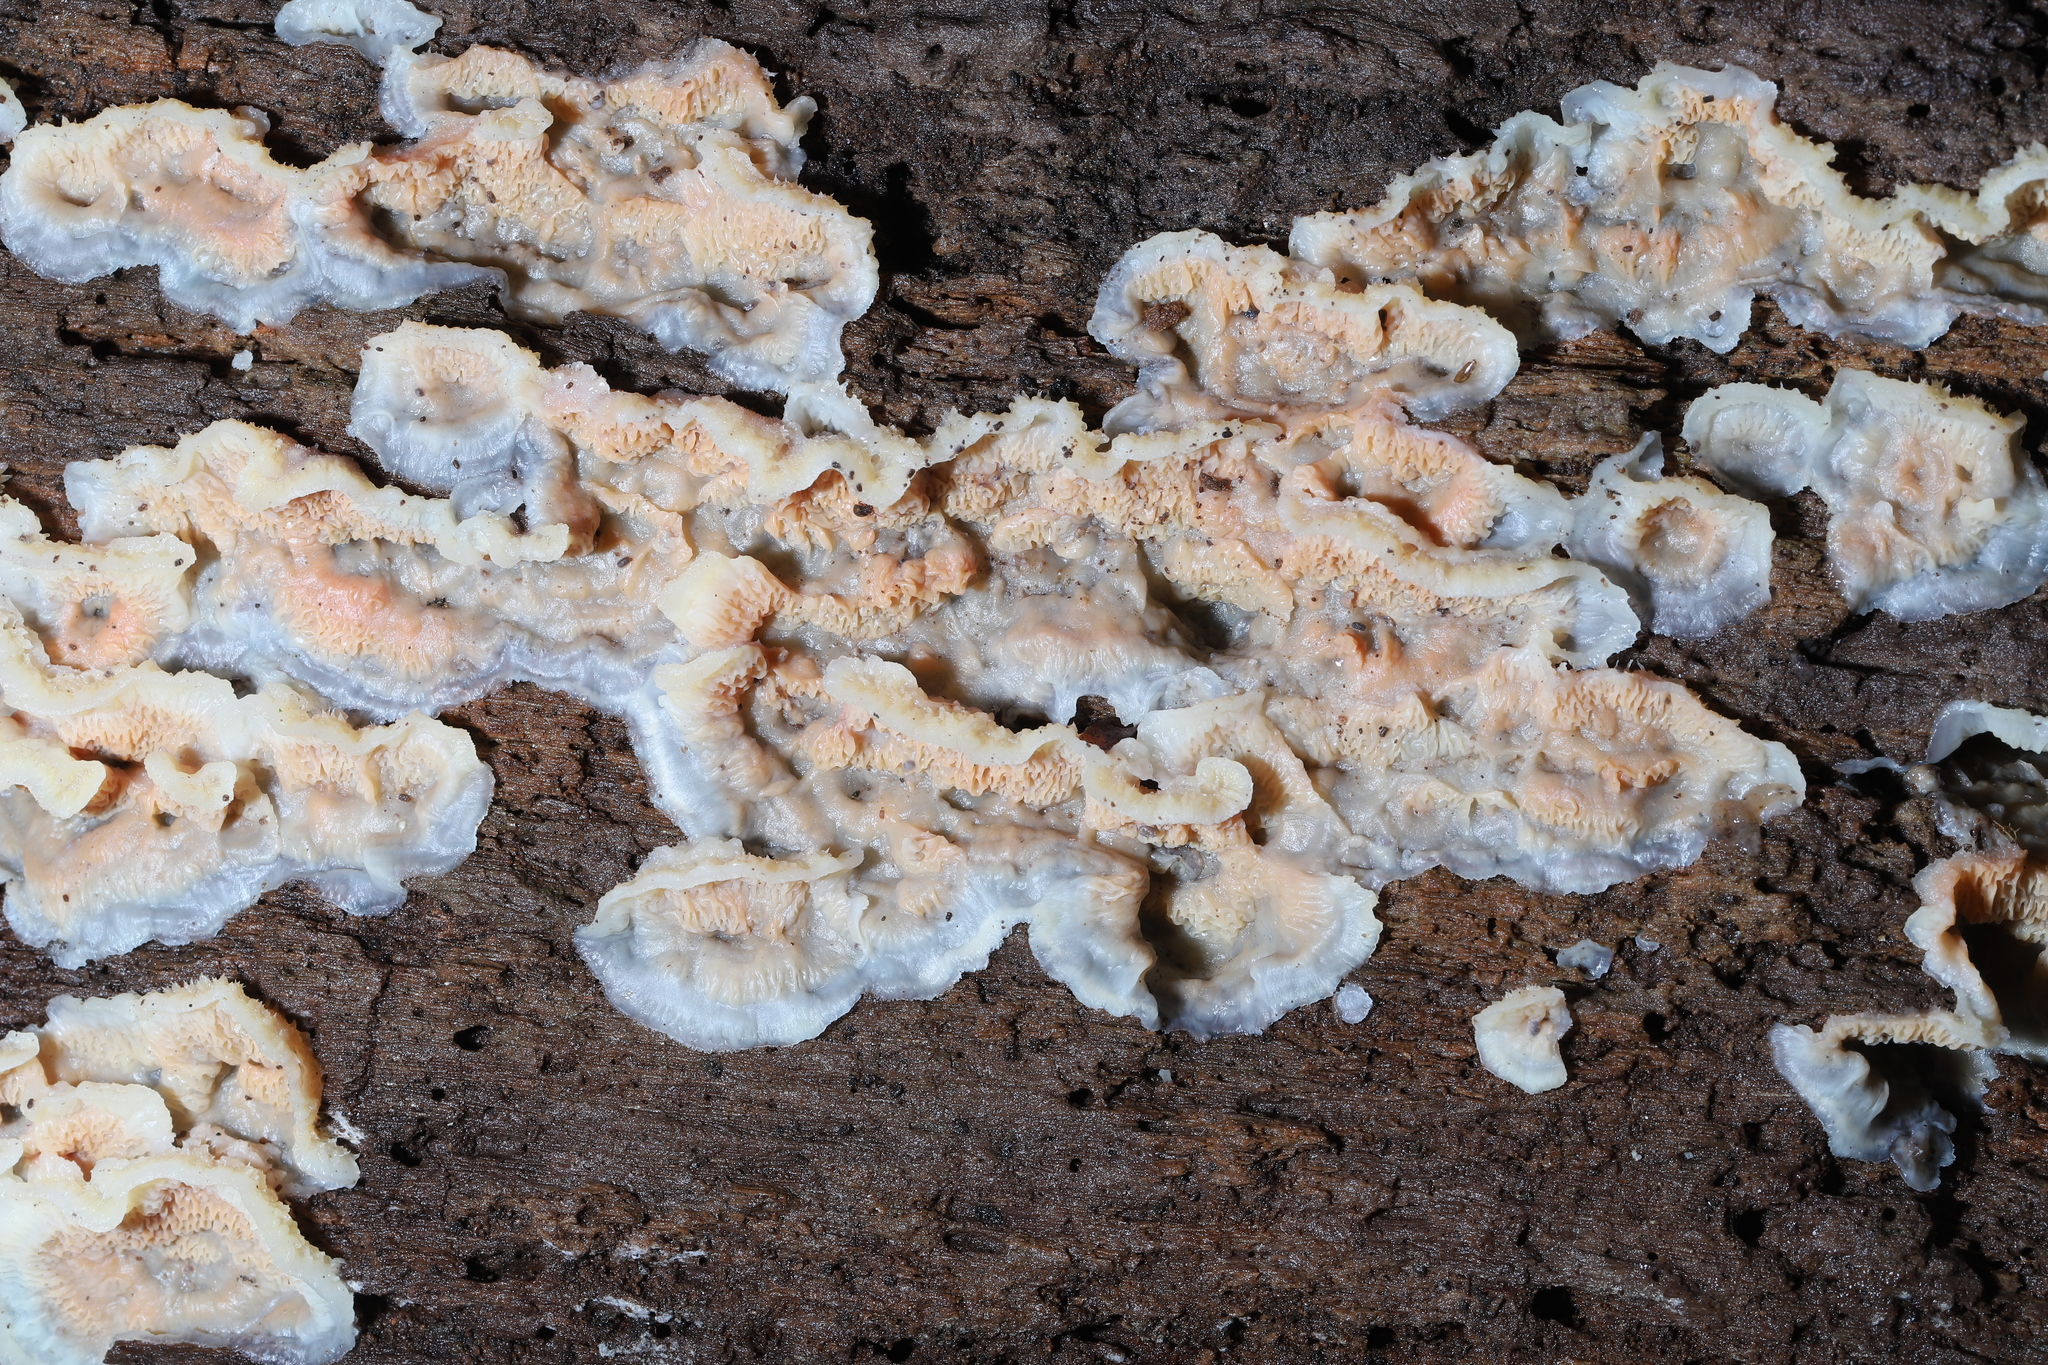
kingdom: Fungi
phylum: Basidiomycota
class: Agaricomycetes
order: Polyporales
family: Meruliaceae
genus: Phlebia
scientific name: Phlebia tremellosa
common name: Jelly rot
